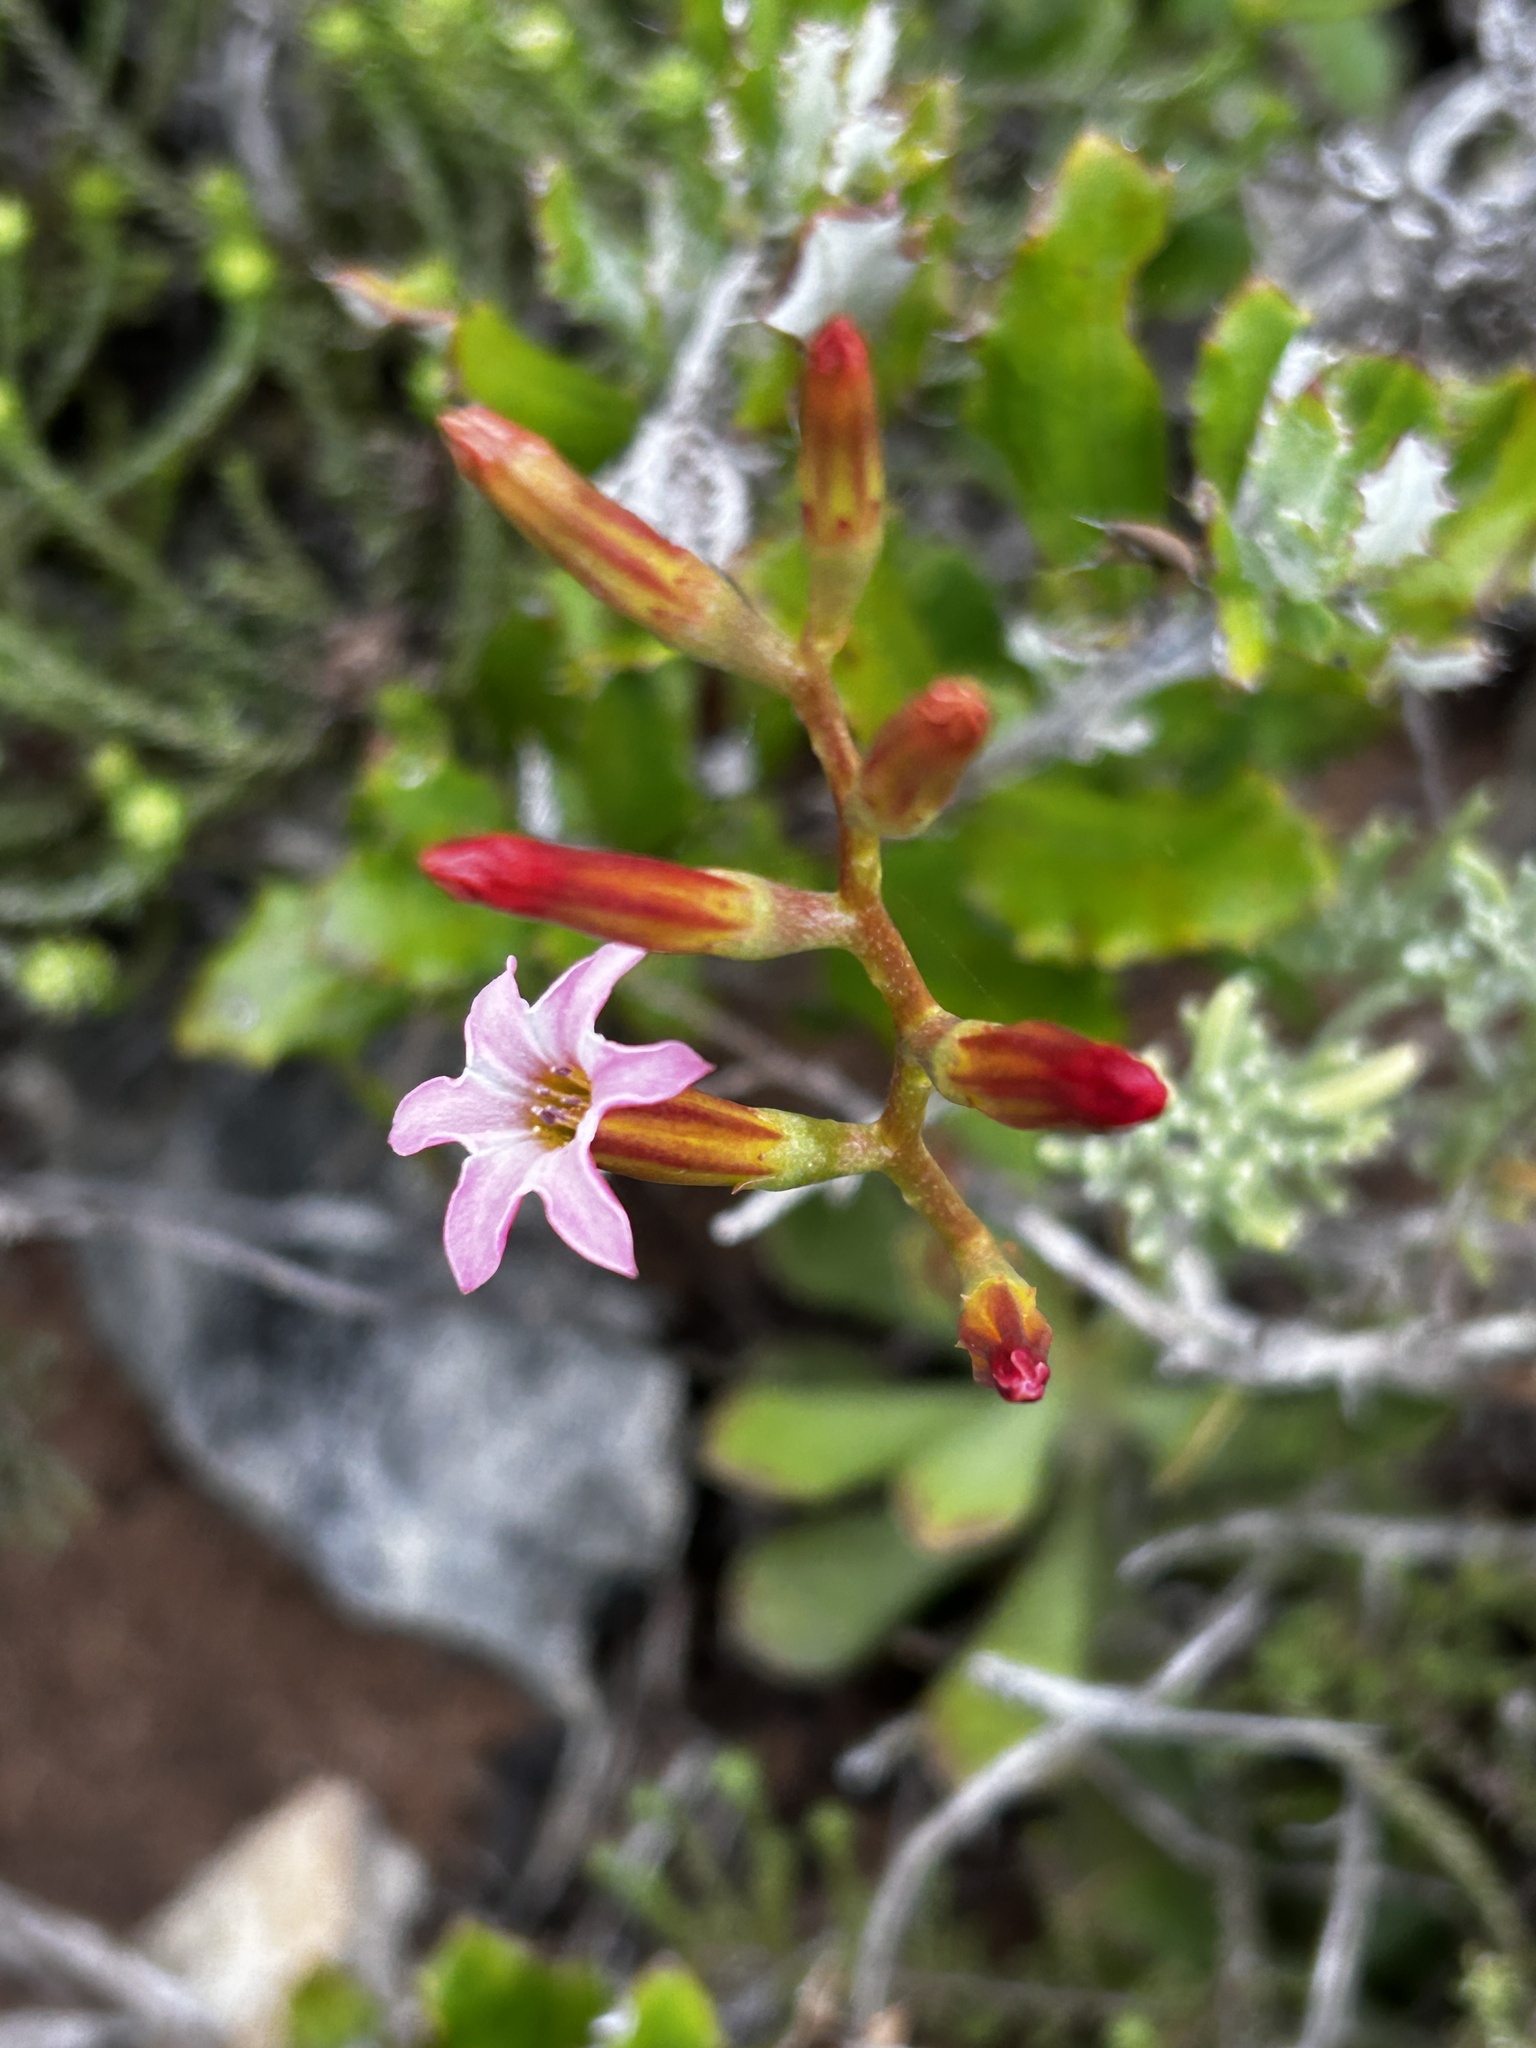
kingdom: Plantae
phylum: Tracheophyta
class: Magnoliopsida
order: Saxifragales
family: Crassulaceae
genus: Adromischus
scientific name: Adromischus caryophyllaceus
